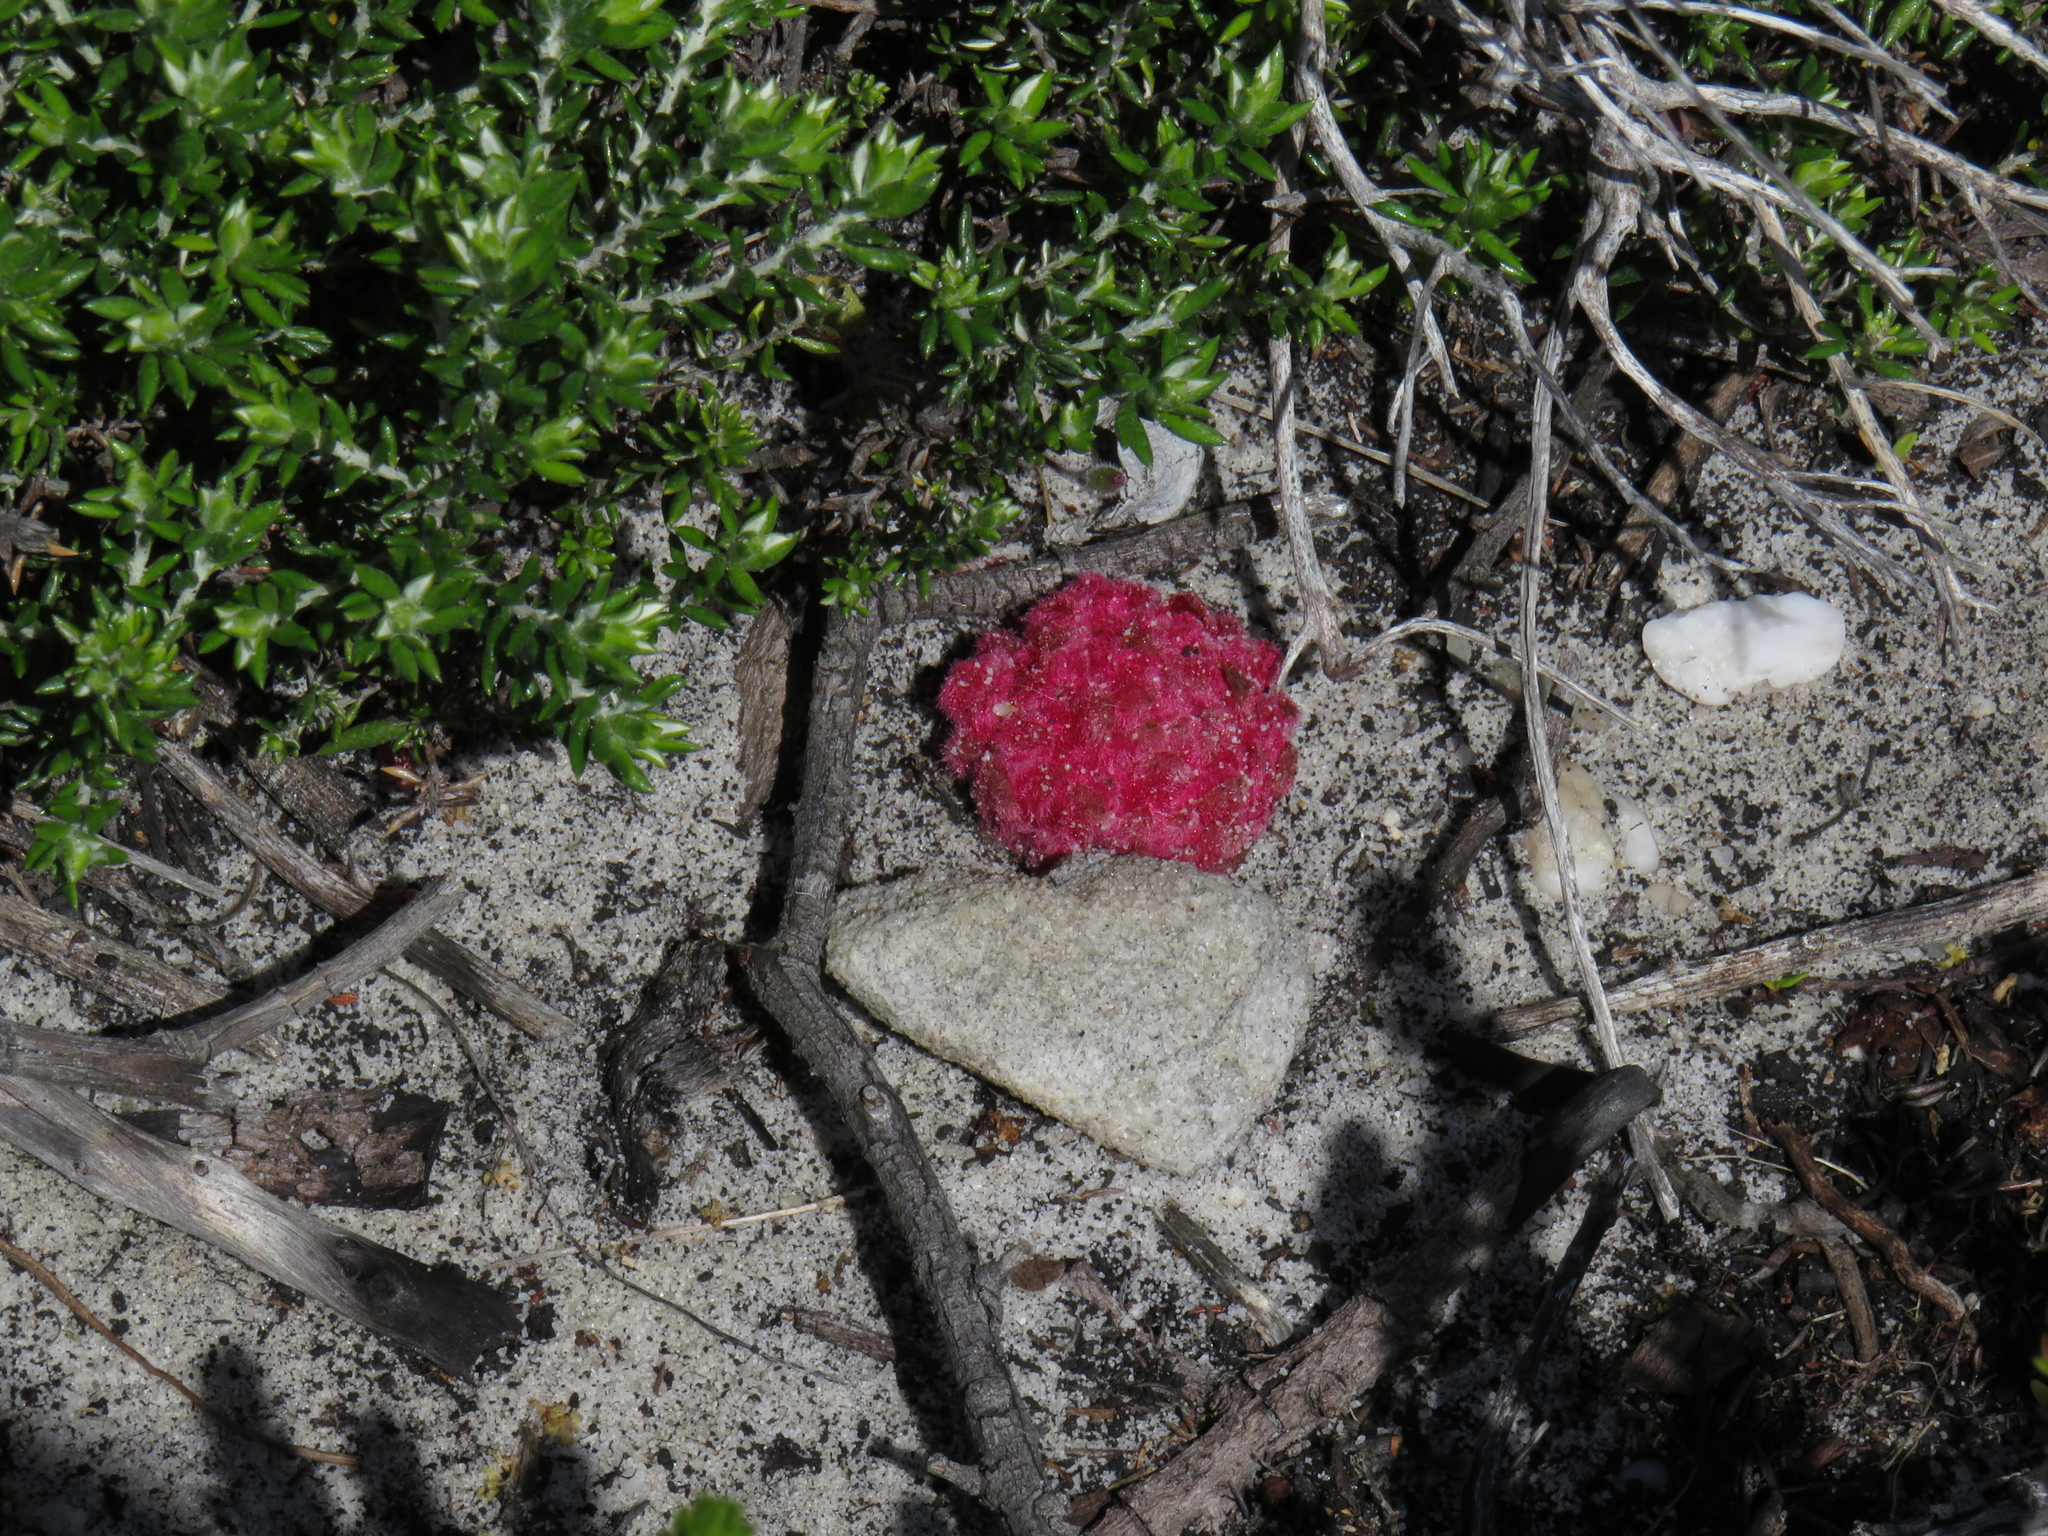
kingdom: Plantae
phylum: Tracheophyta
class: Magnoliopsida
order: Lamiales
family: Orobanchaceae
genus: Hyobanche
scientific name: Hyobanche sanguinea
